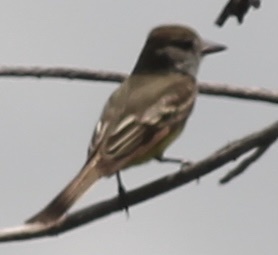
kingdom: Animalia
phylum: Chordata
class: Aves
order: Passeriformes
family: Tyrannidae
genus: Myiarchus
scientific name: Myiarchus crinitus
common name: Great crested flycatcher
